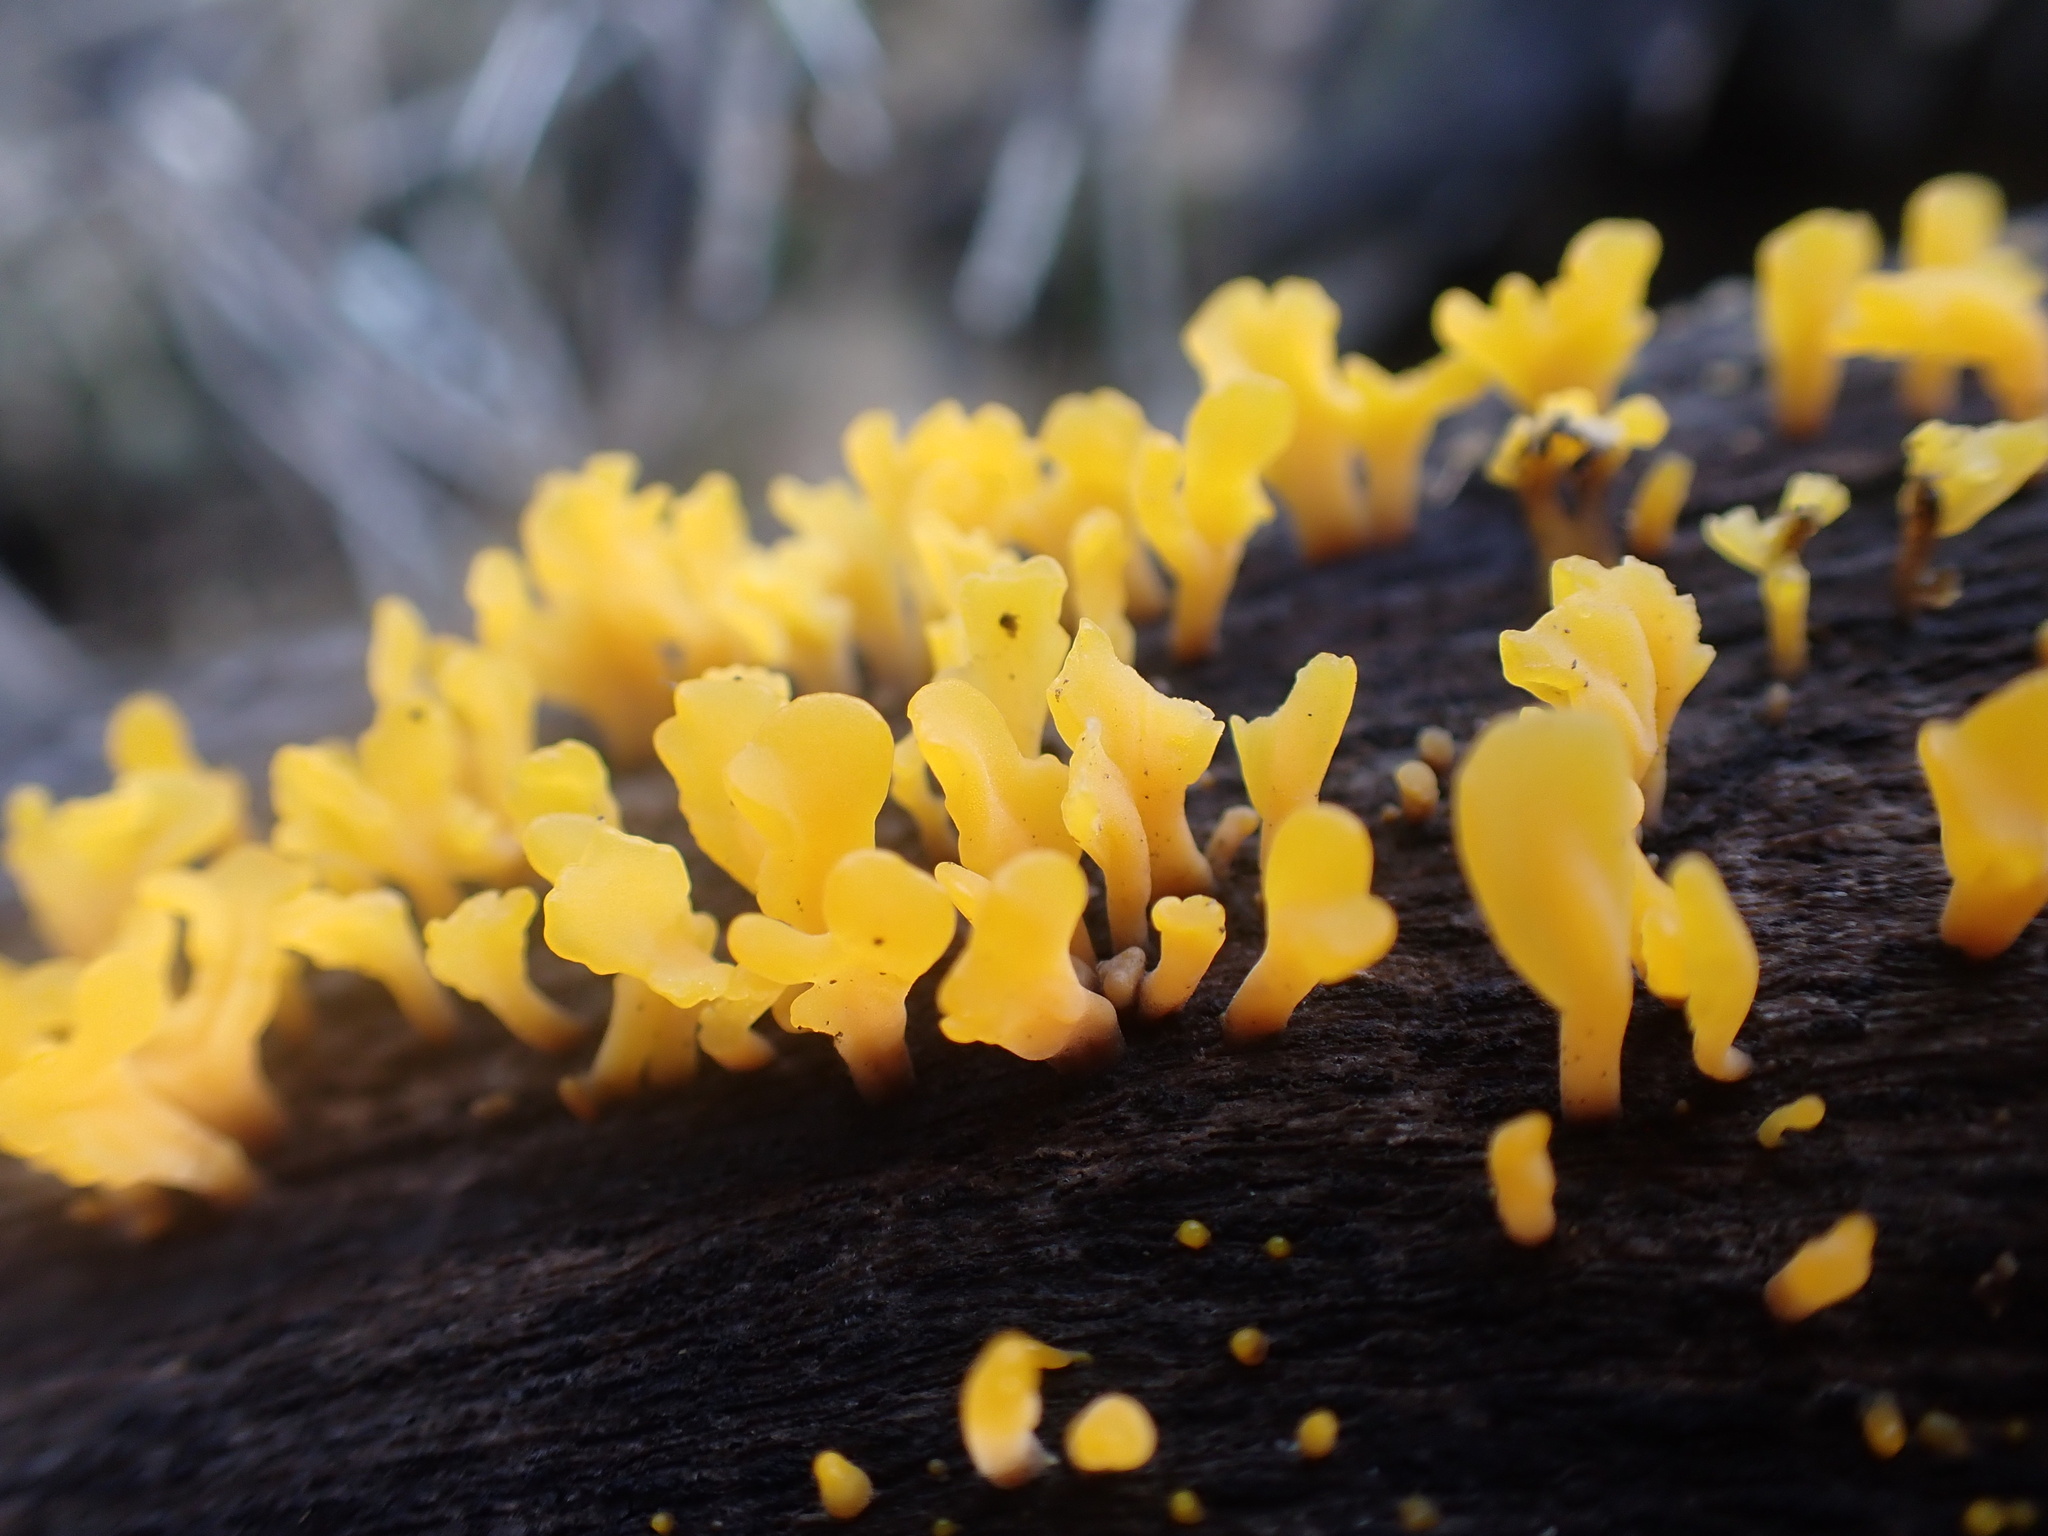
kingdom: Fungi
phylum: Basidiomycota
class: Dacrymycetes
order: Dacrymycetales
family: Dacrymycetaceae
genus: Dacrymyces
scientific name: Dacrymyces spathularius
